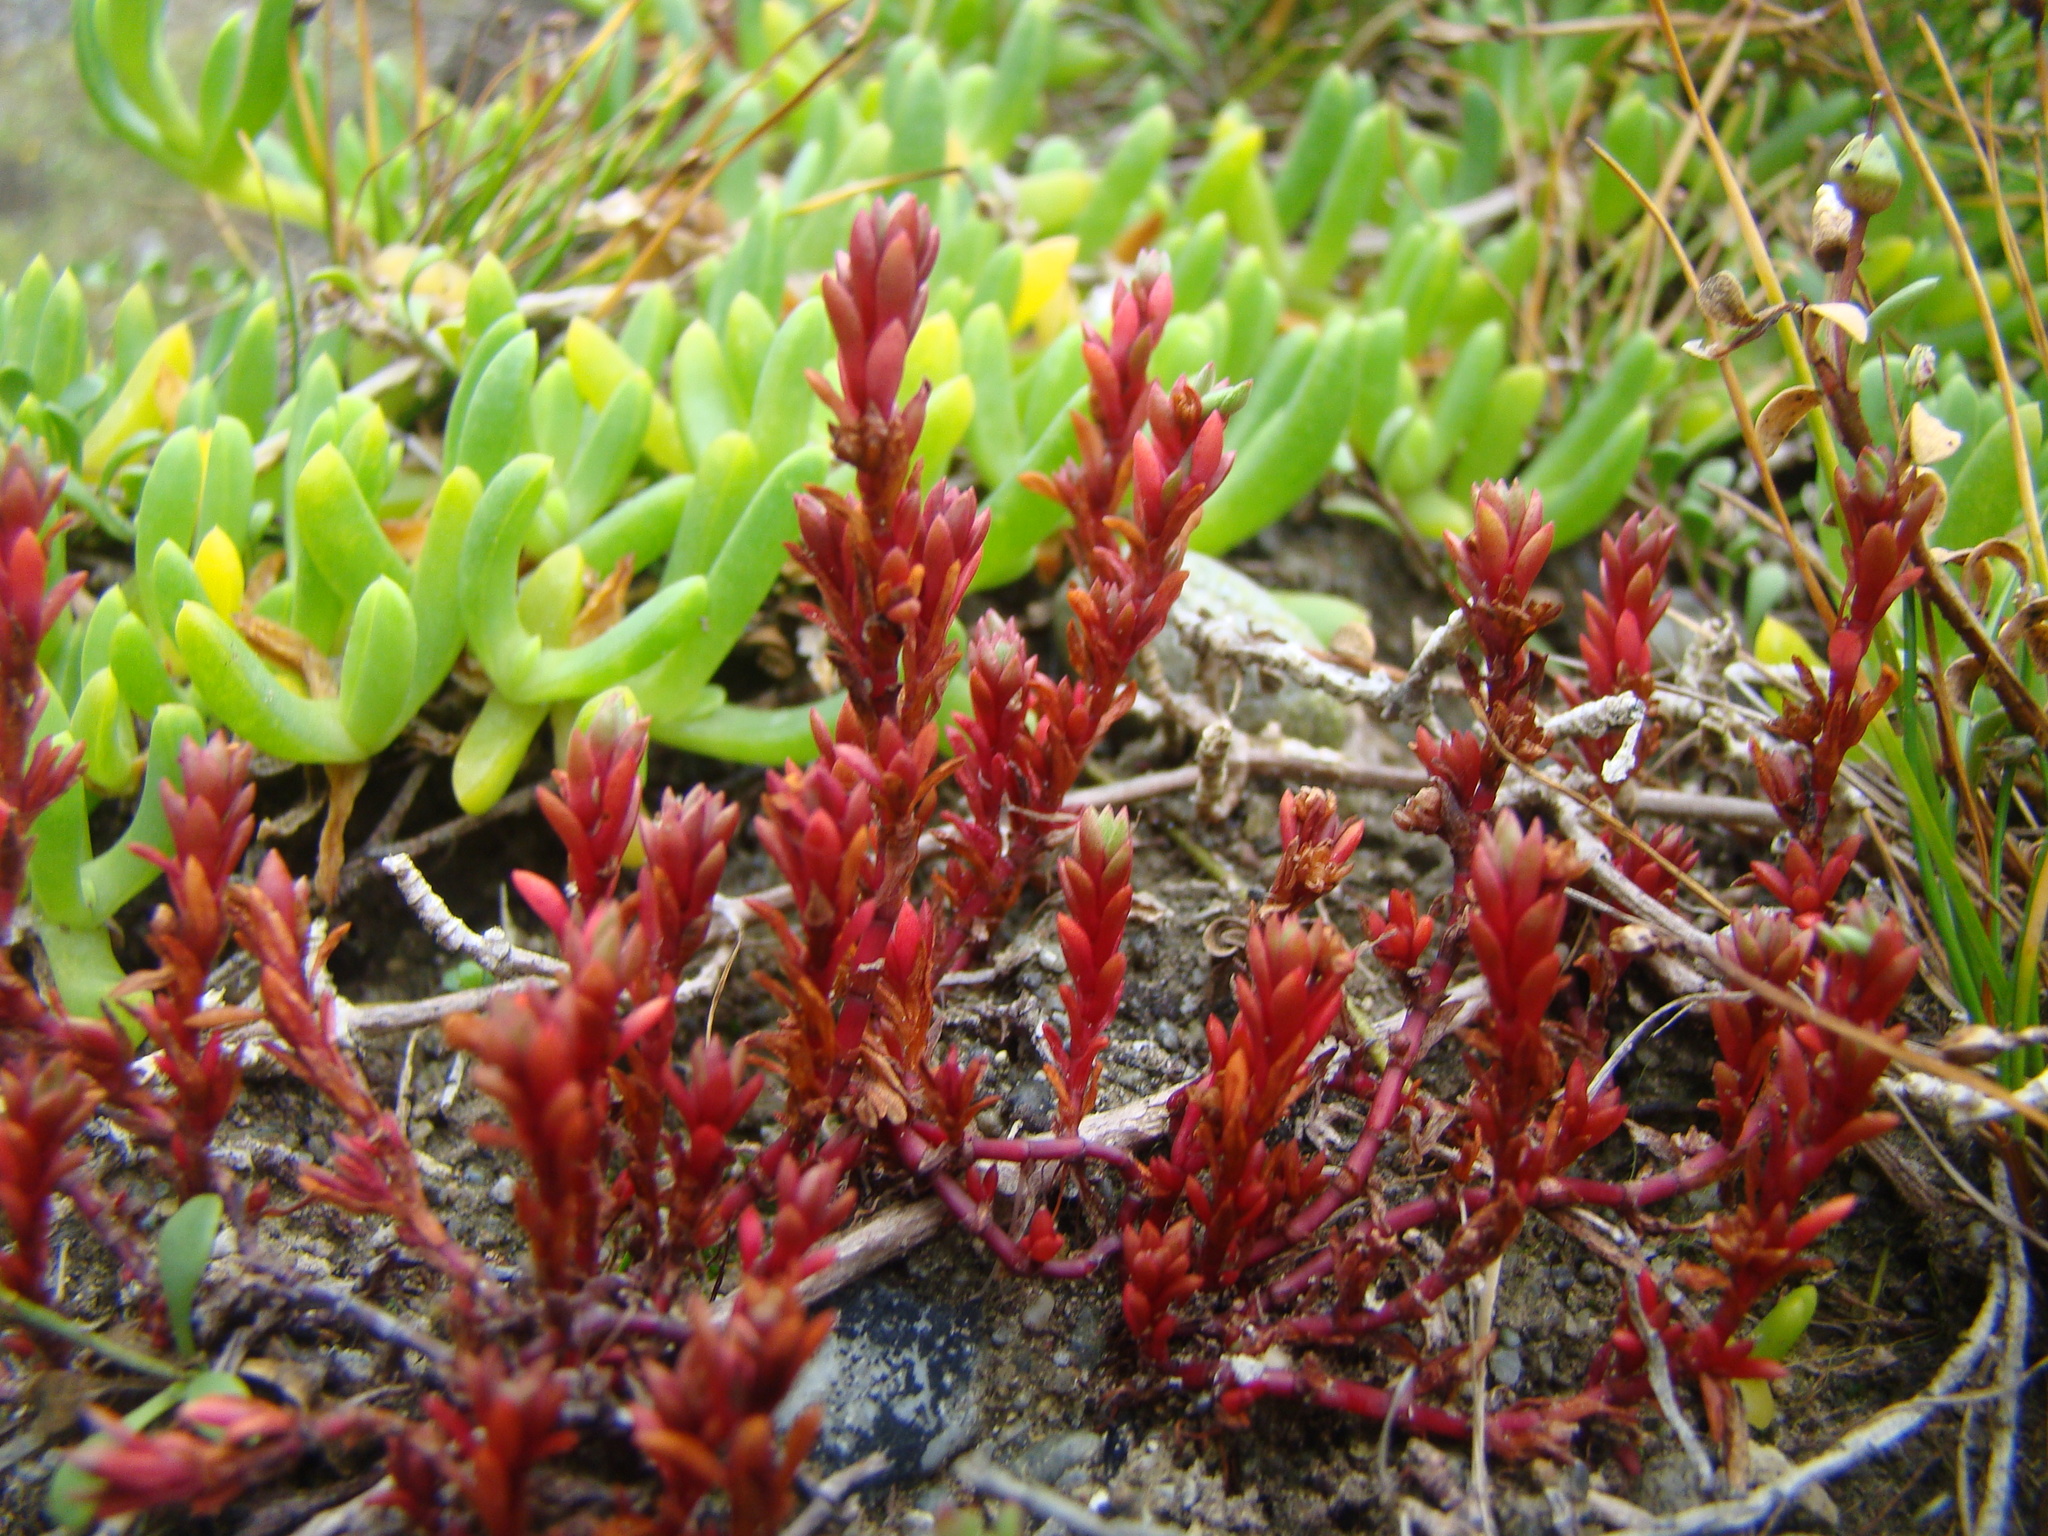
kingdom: Plantae
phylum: Tracheophyta
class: Magnoliopsida
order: Saxifragales
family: Crassulaceae
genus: Crassula
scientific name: Crassula moschata
